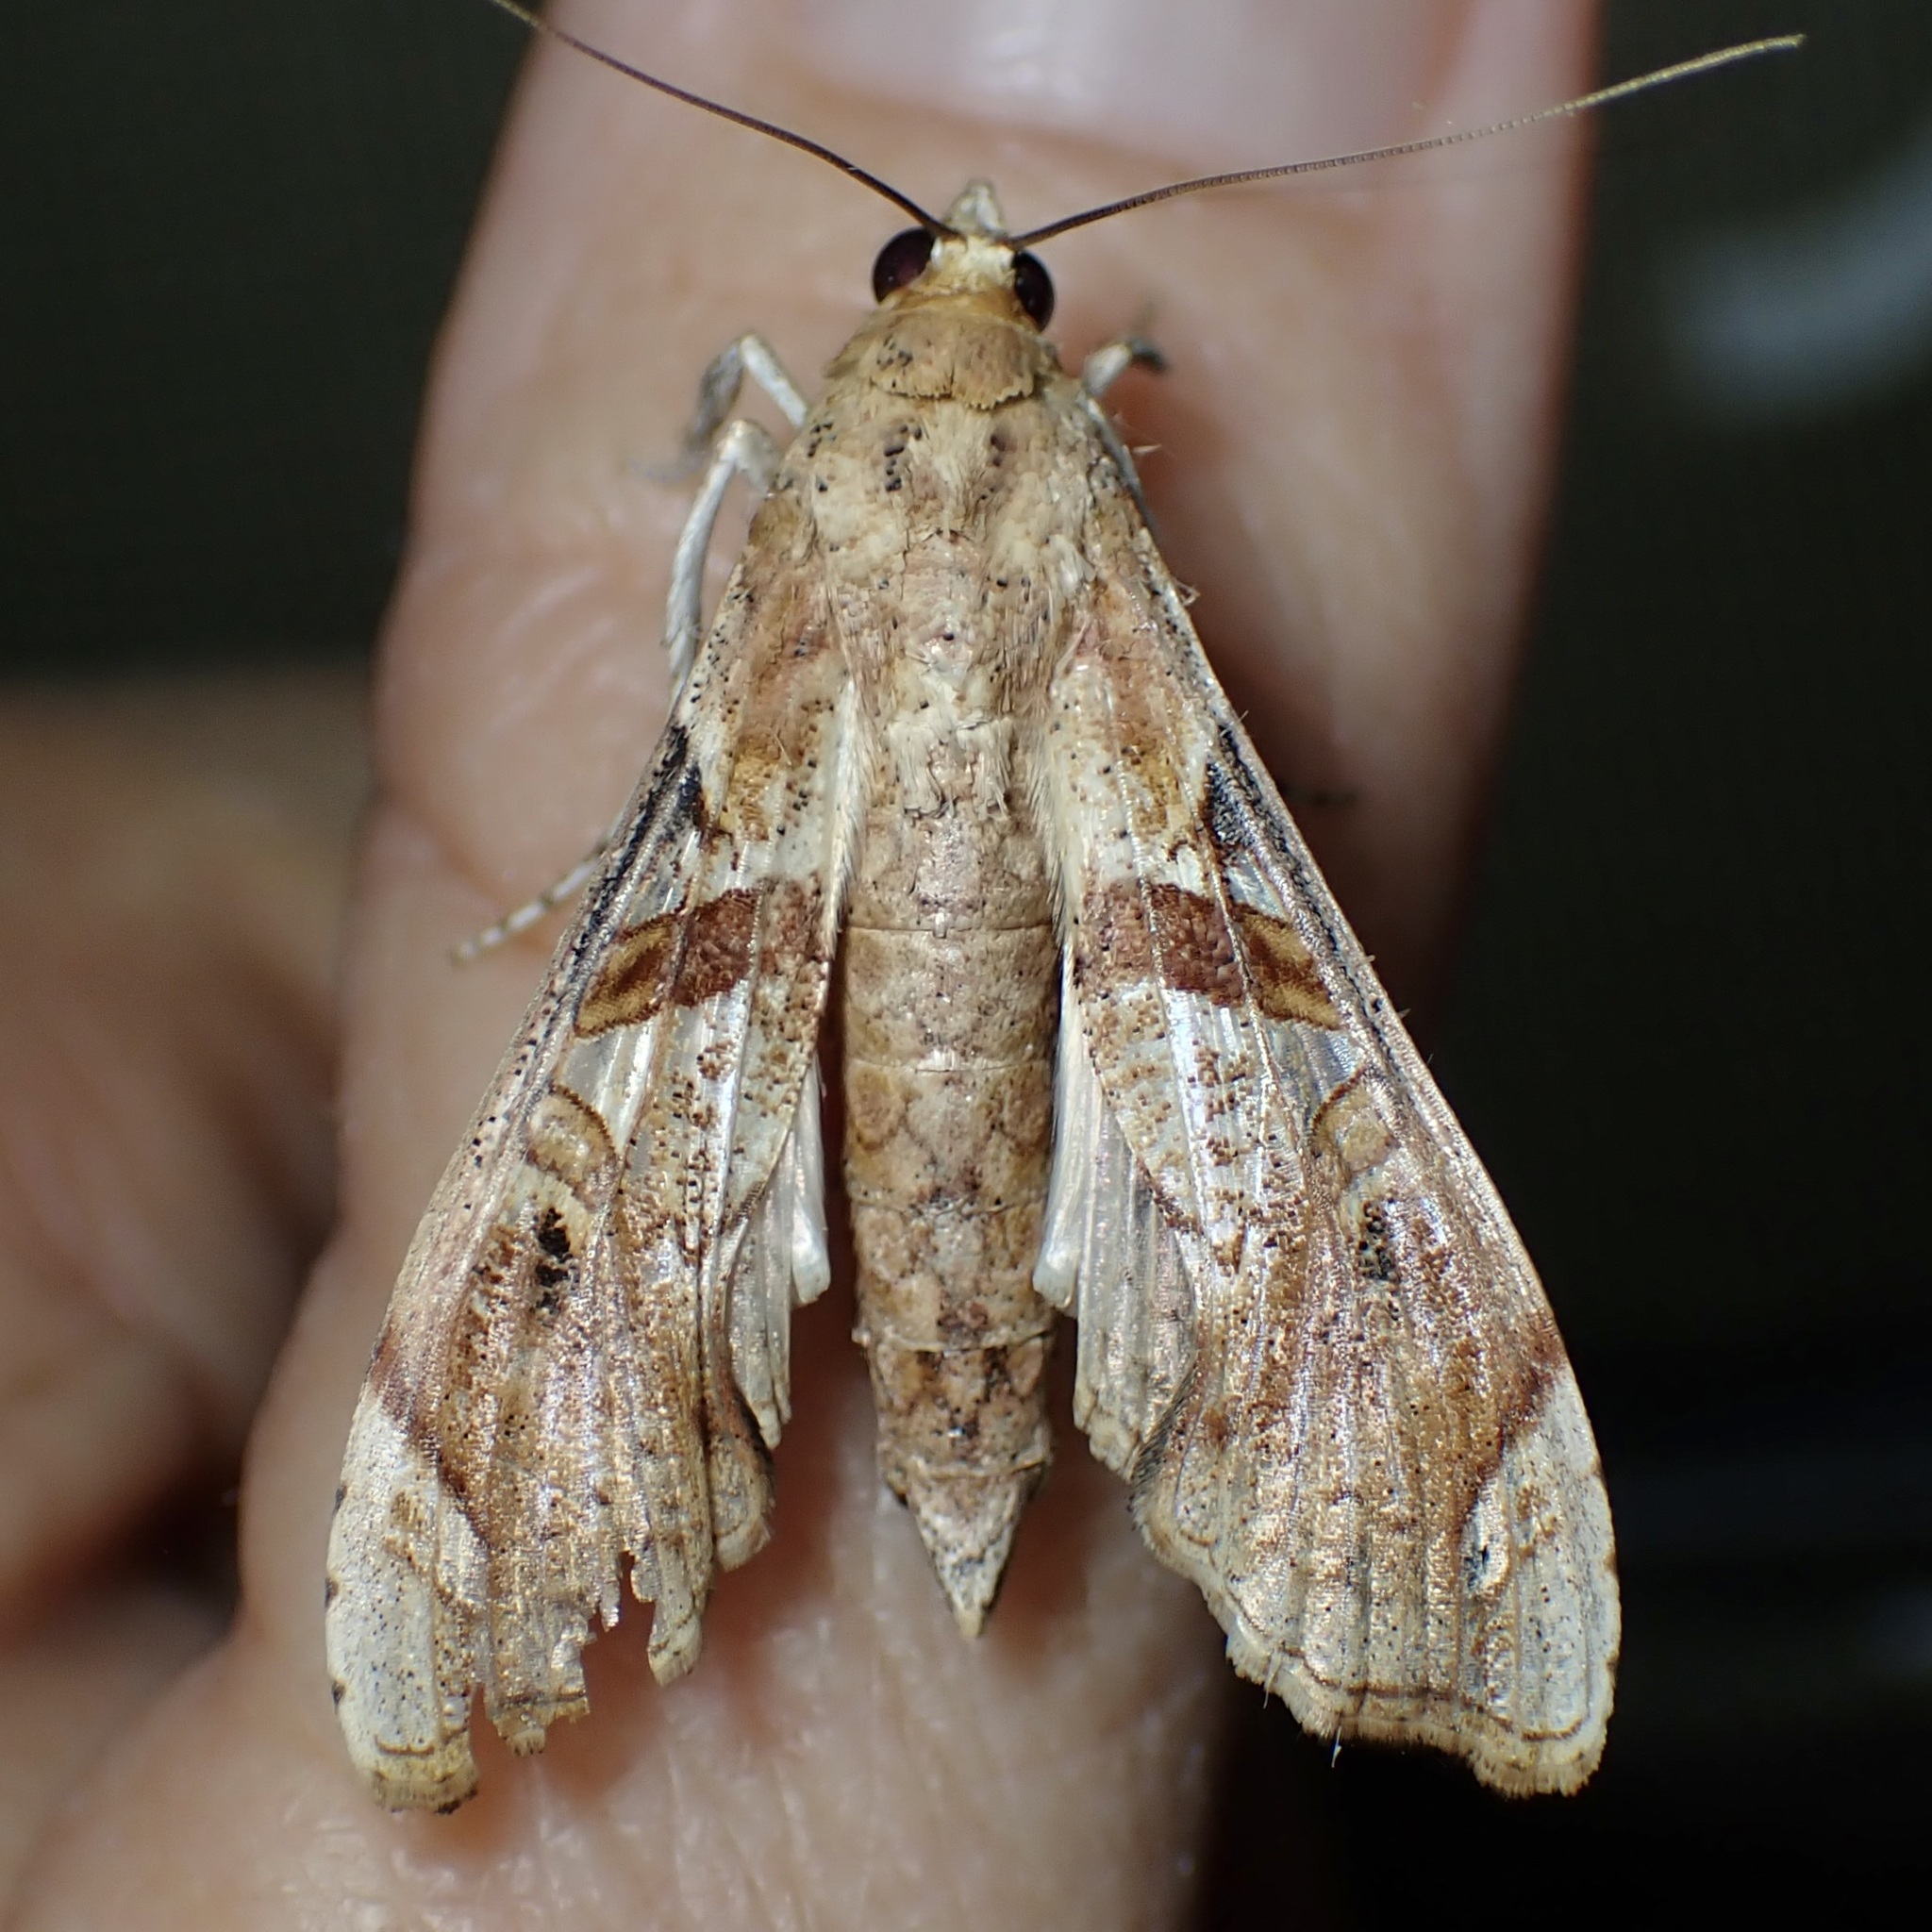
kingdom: Animalia
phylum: Arthropoda
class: Insecta
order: Lepidoptera
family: Crambidae
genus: Terastia
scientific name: Terastia meticulosalis
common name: Moth
